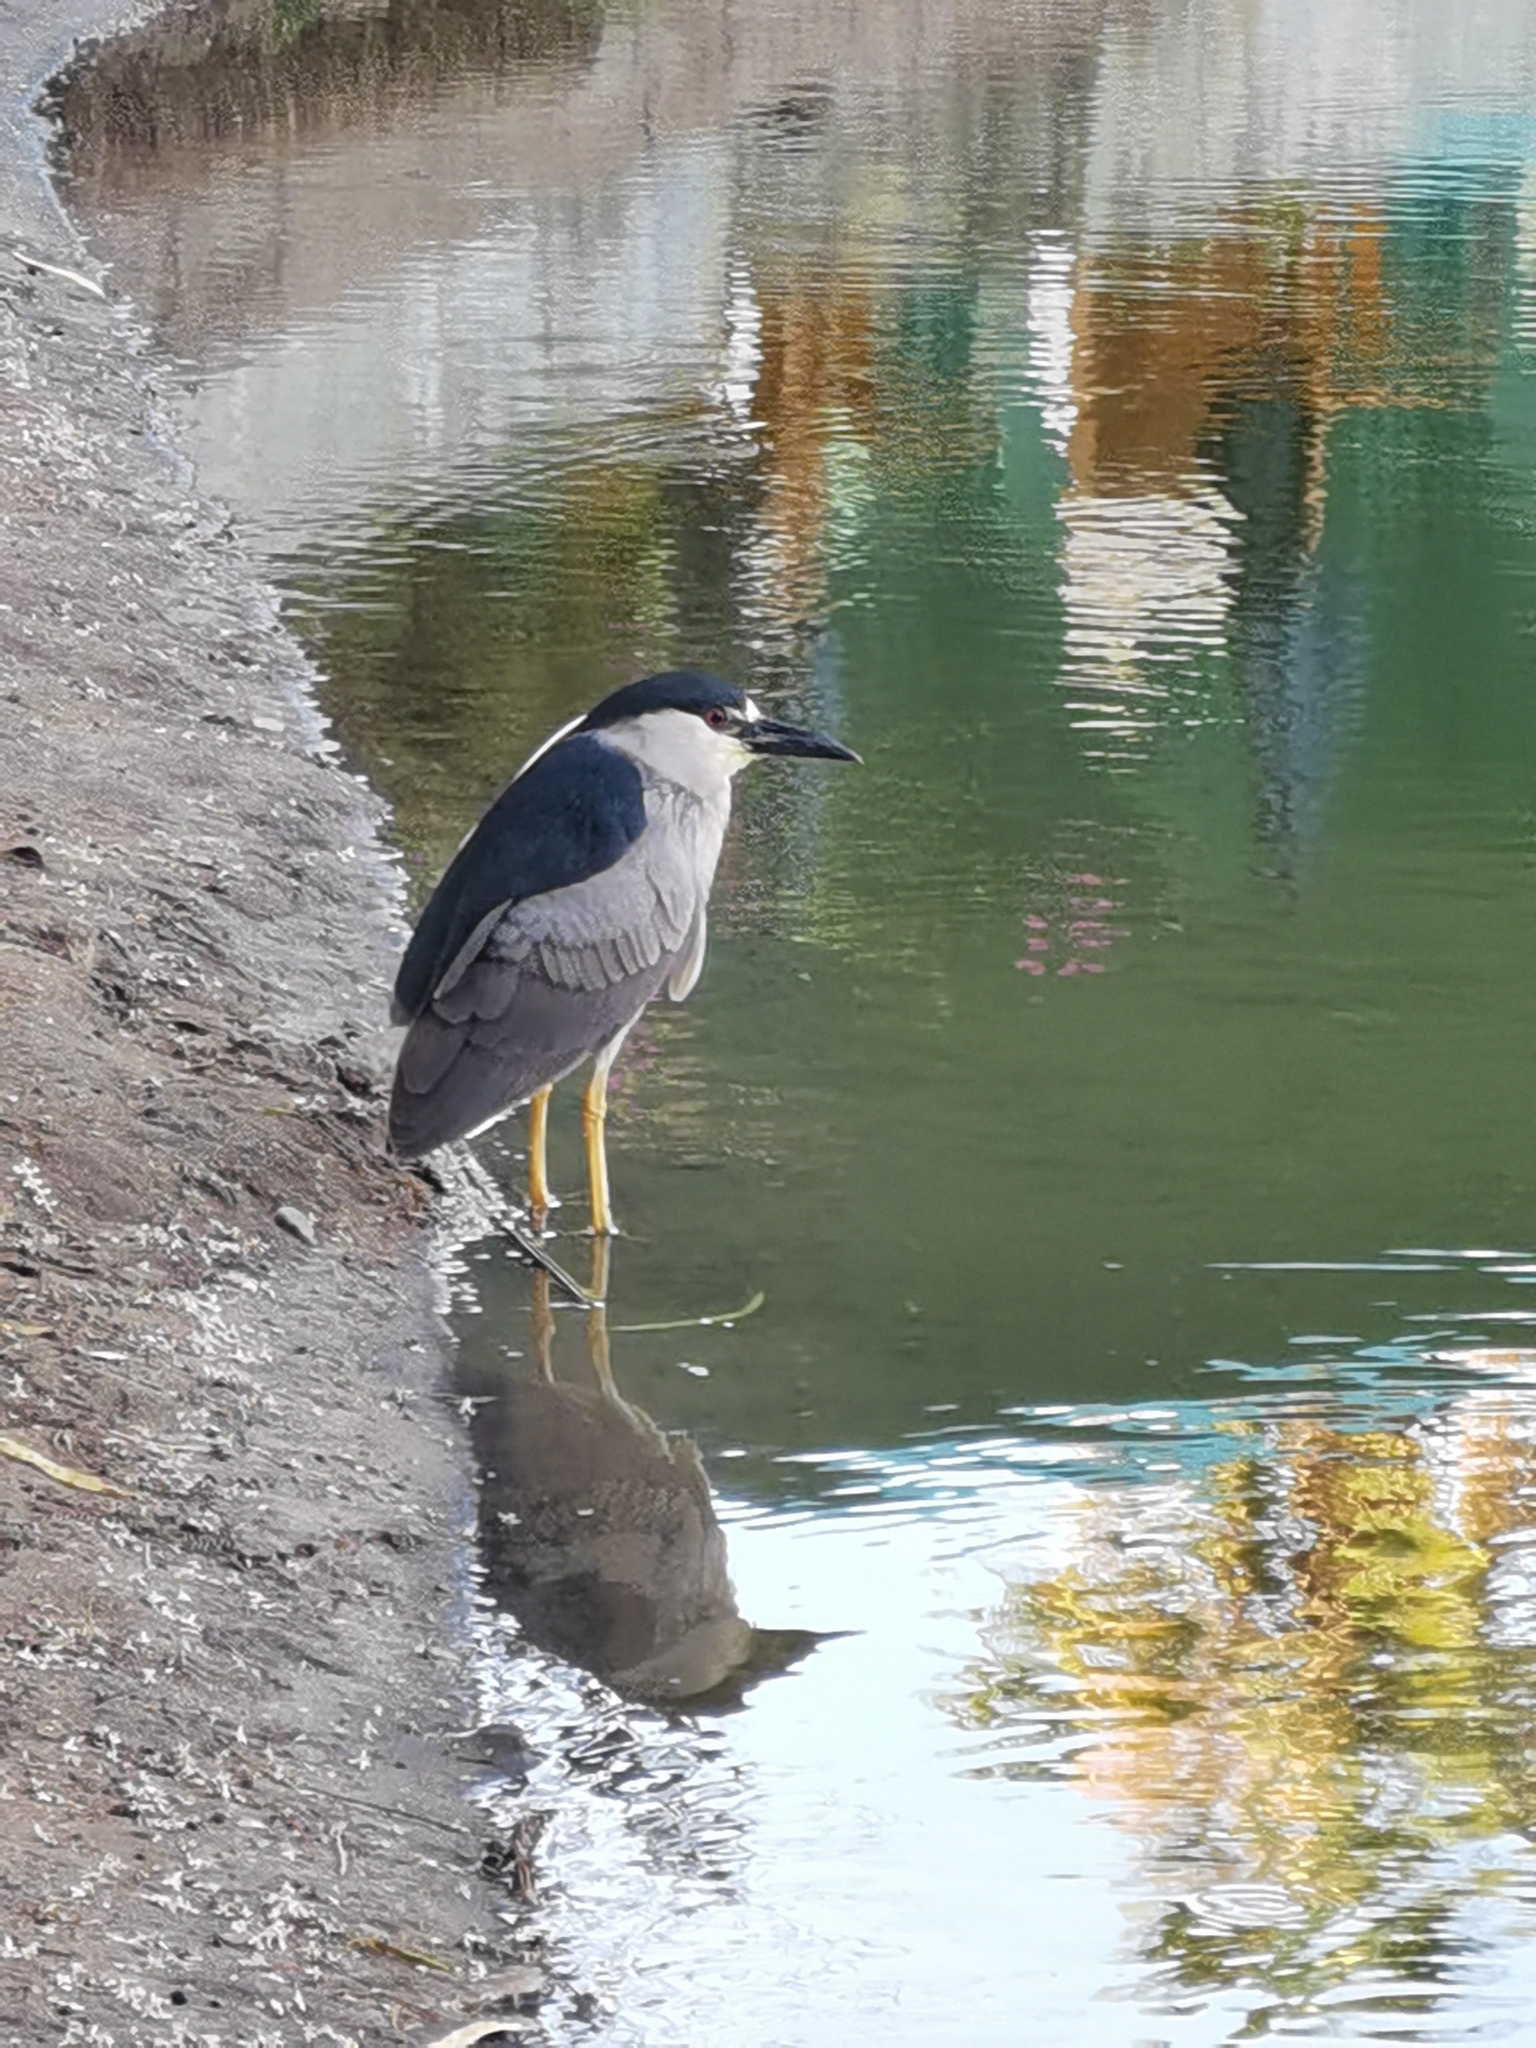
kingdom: Animalia
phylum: Chordata
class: Aves
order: Pelecaniformes
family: Ardeidae
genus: Nycticorax
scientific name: Nycticorax nycticorax
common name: Black-crowned night heron
